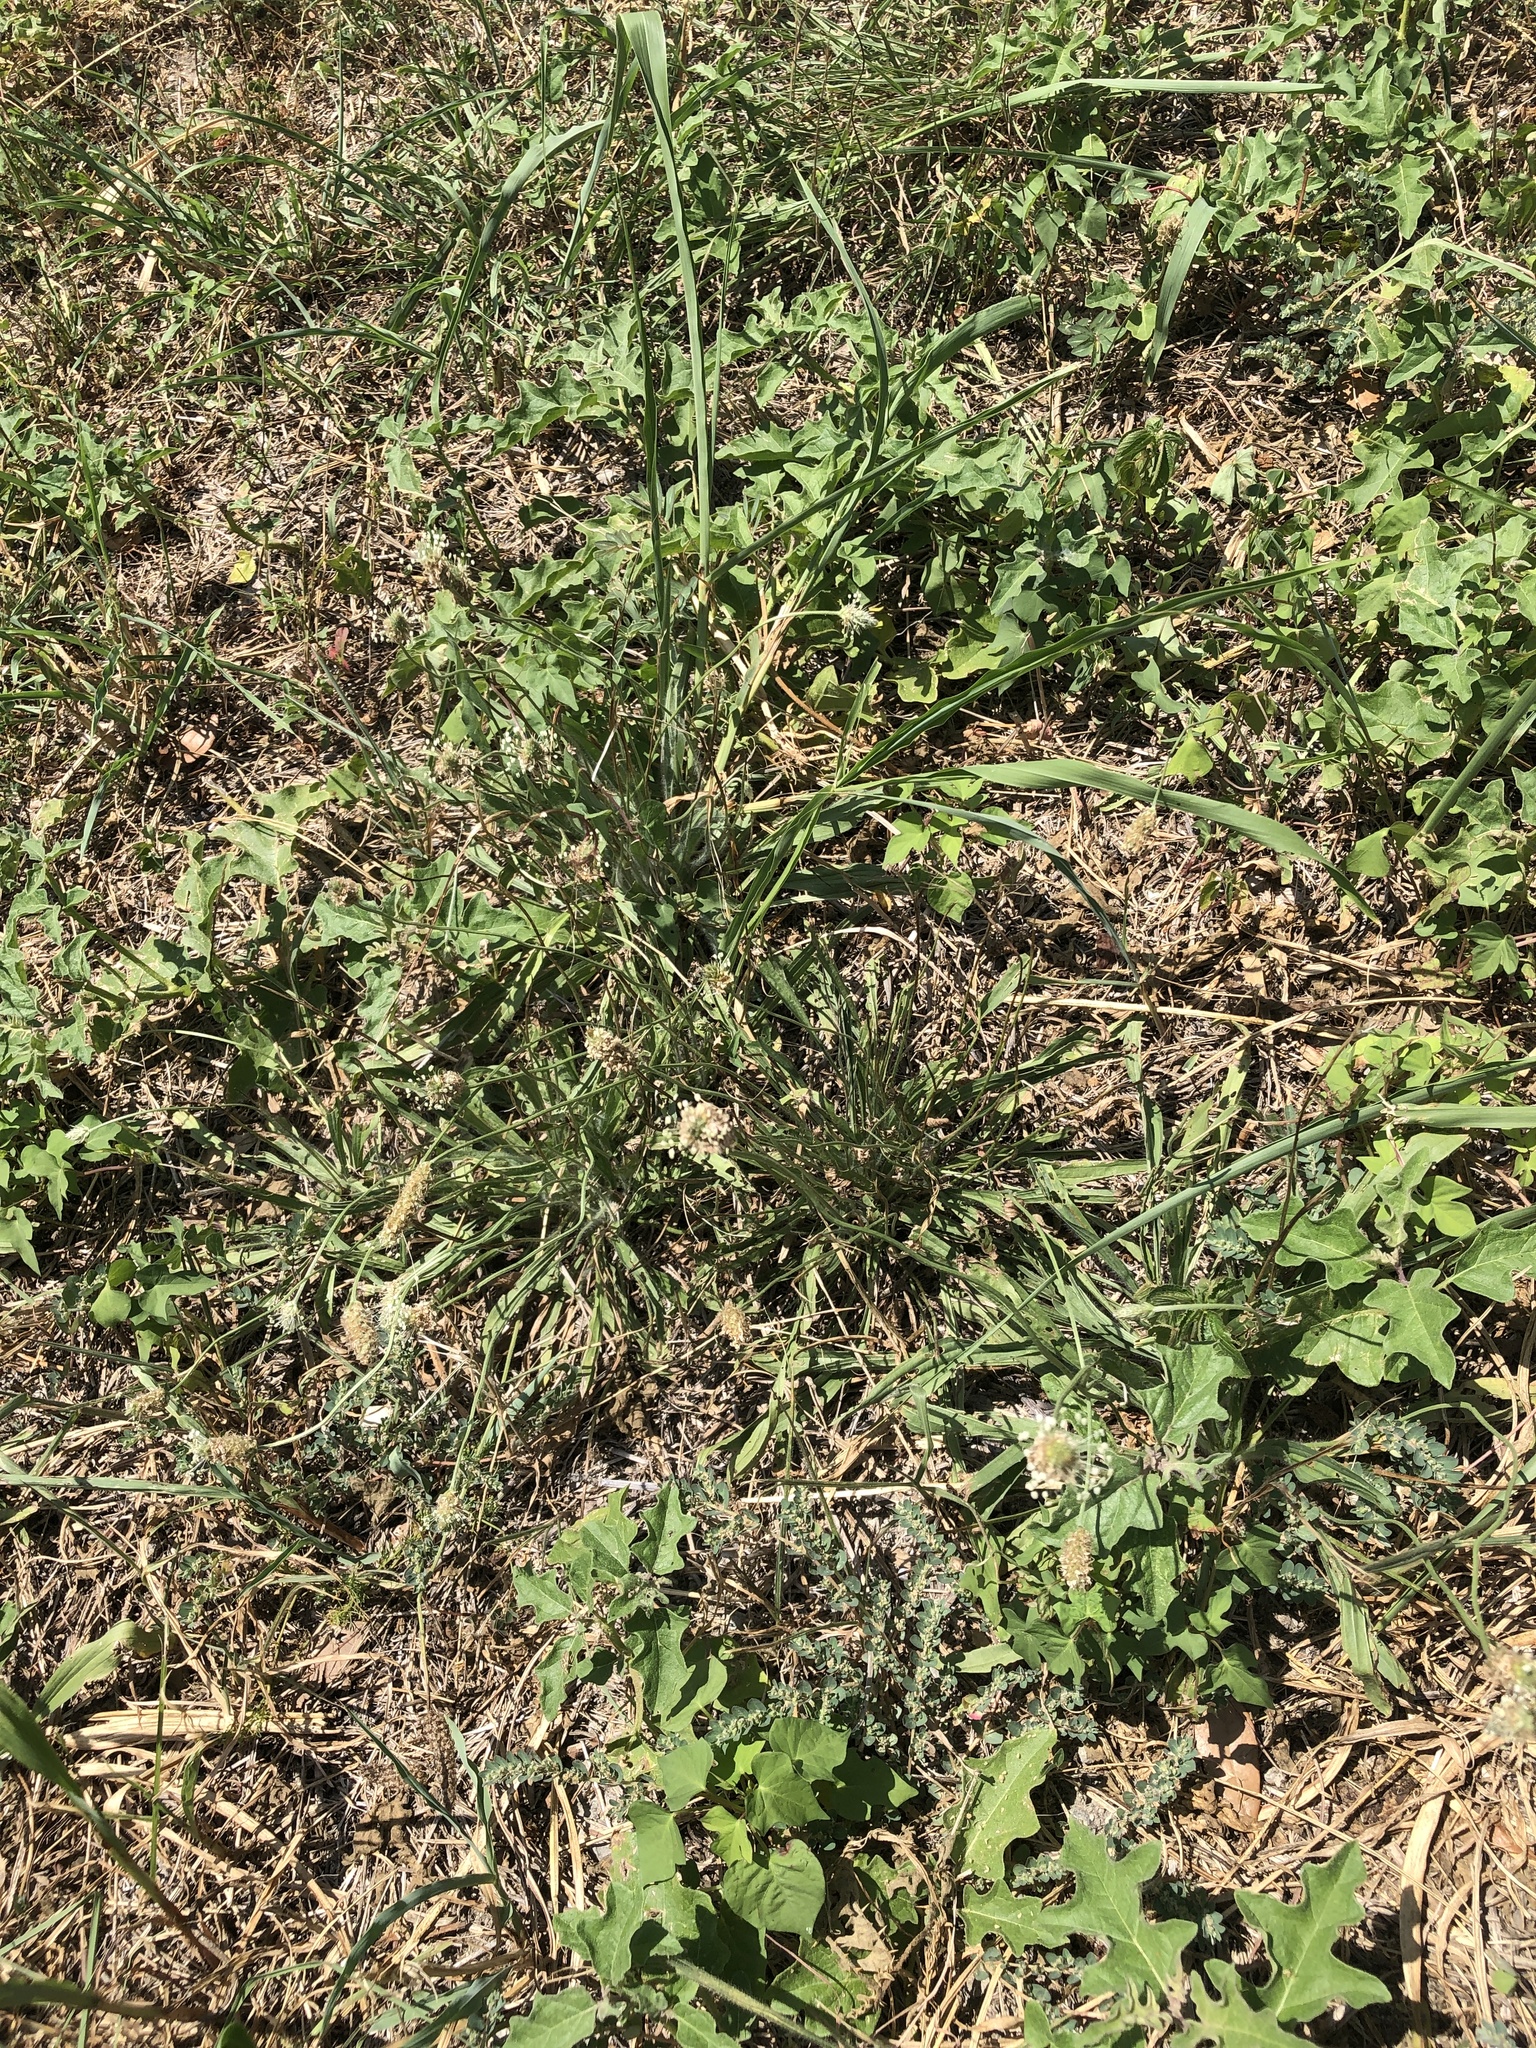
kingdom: Plantae
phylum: Tracheophyta
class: Magnoliopsida
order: Lamiales
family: Plantaginaceae
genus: Plantago
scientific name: Plantago lanceolata
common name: Ribwort plantain
